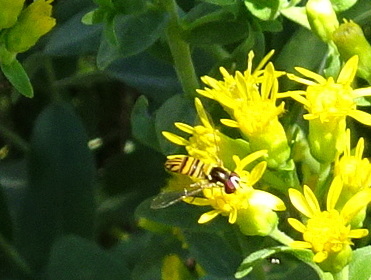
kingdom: Animalia
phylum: Arthropoda
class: Insecta
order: Diptera
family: Syrphidae
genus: Allograpta
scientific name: Allograpta obliqua
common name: Common oblique syrphid
